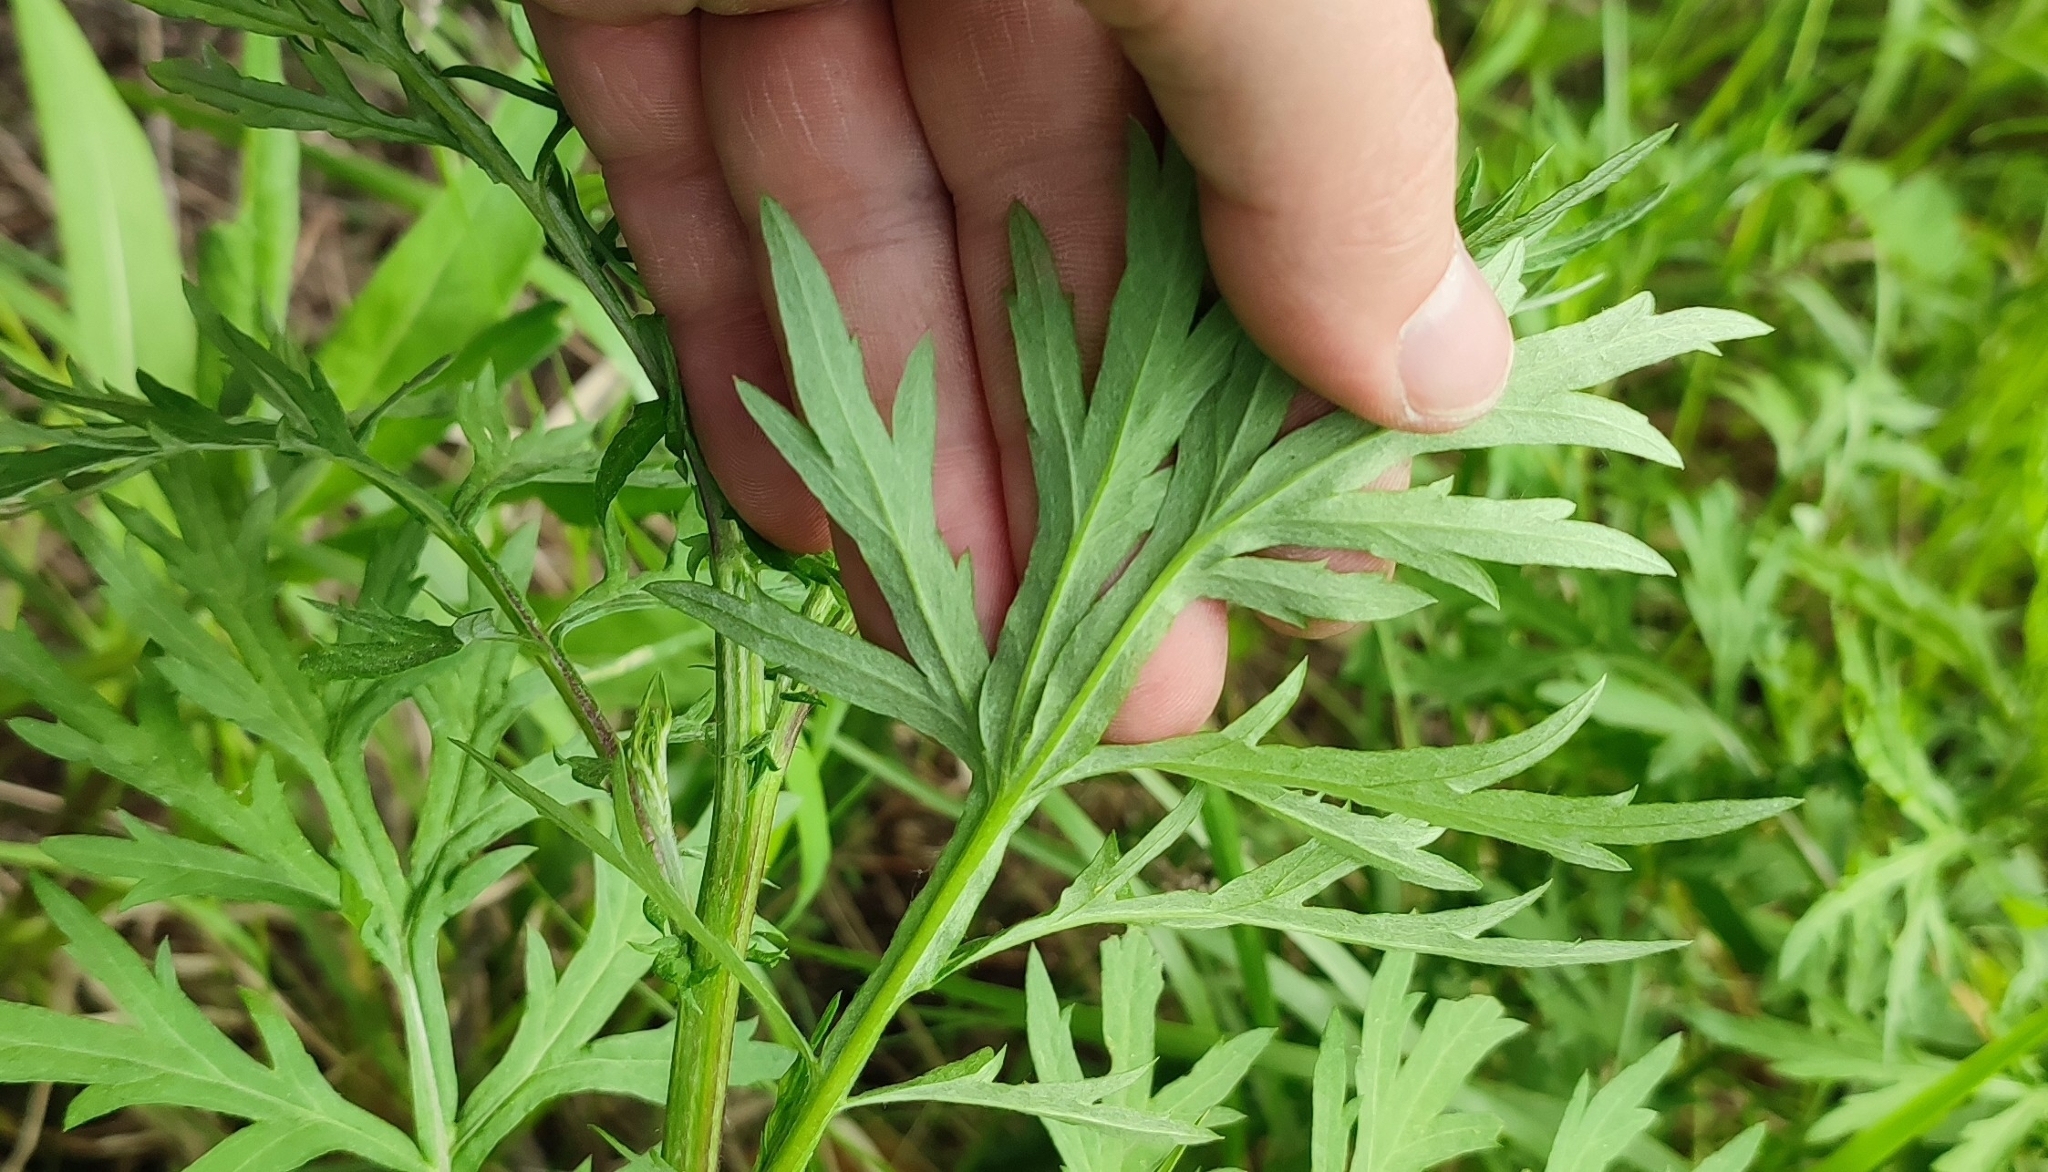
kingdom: Plantae
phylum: Tracheophyta
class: Magnoliopsida
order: Asterales
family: Asteraceae
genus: Artemisia
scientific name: Artemisia vulgaris
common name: Mugwort
